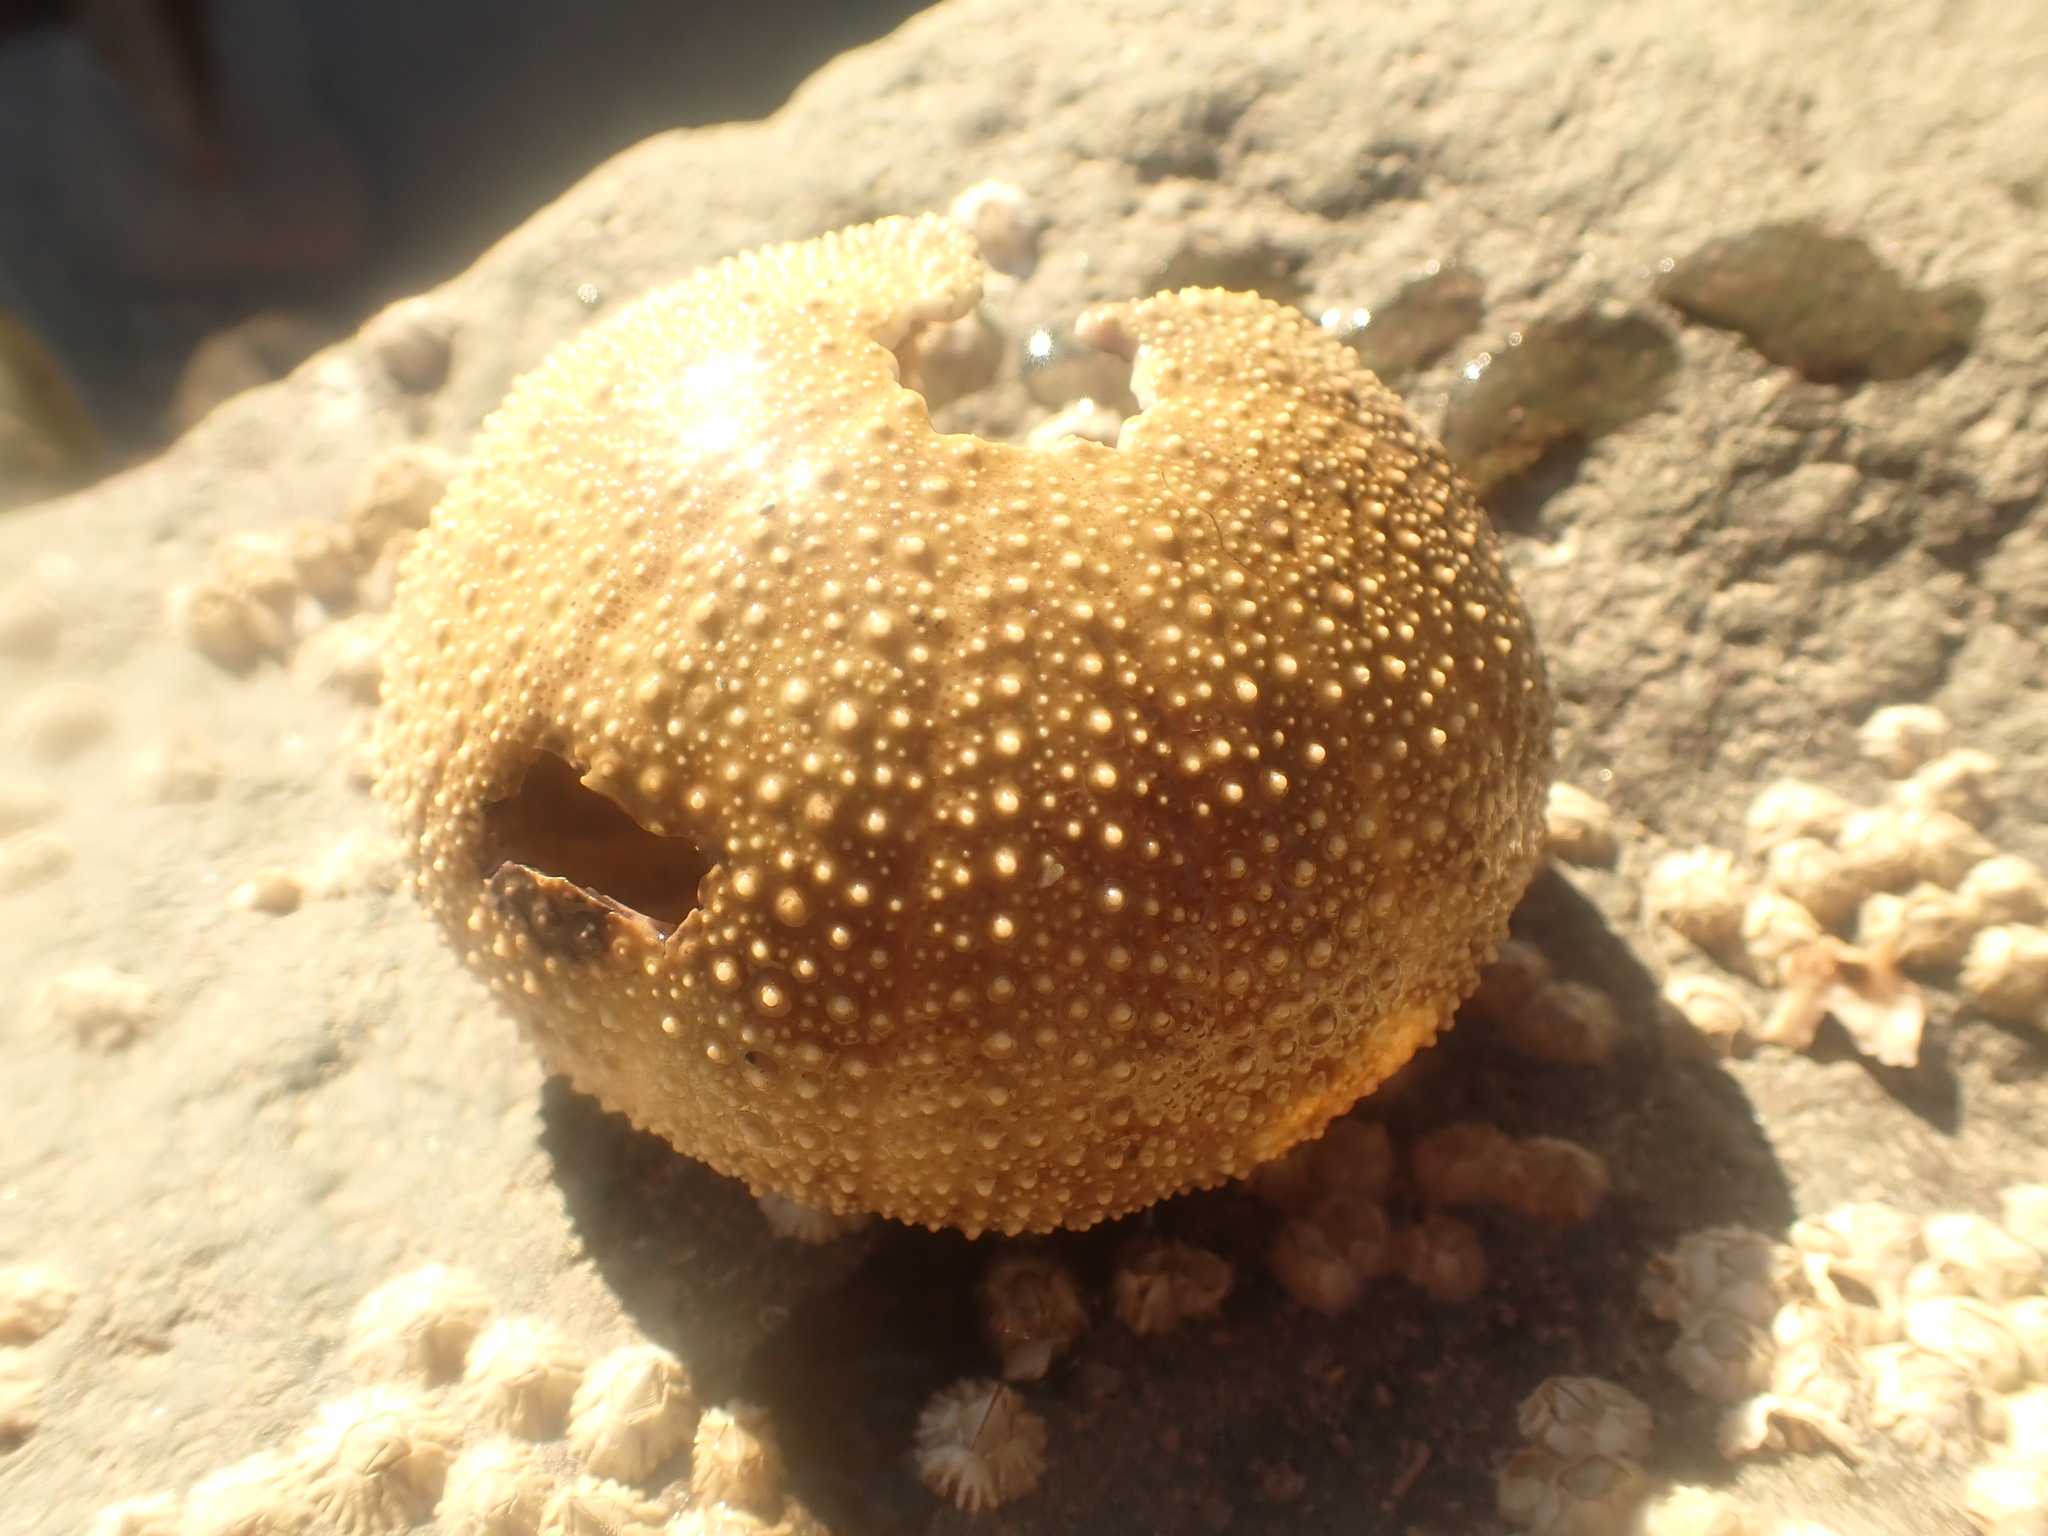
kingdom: Animalia
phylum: Echinodermata
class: Echinoidea
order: Camarodonta
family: Strongylocentrotidae
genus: Strongylocentrotus
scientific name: Strongylocentrotus droebachiensis
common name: Northern sea urchin
